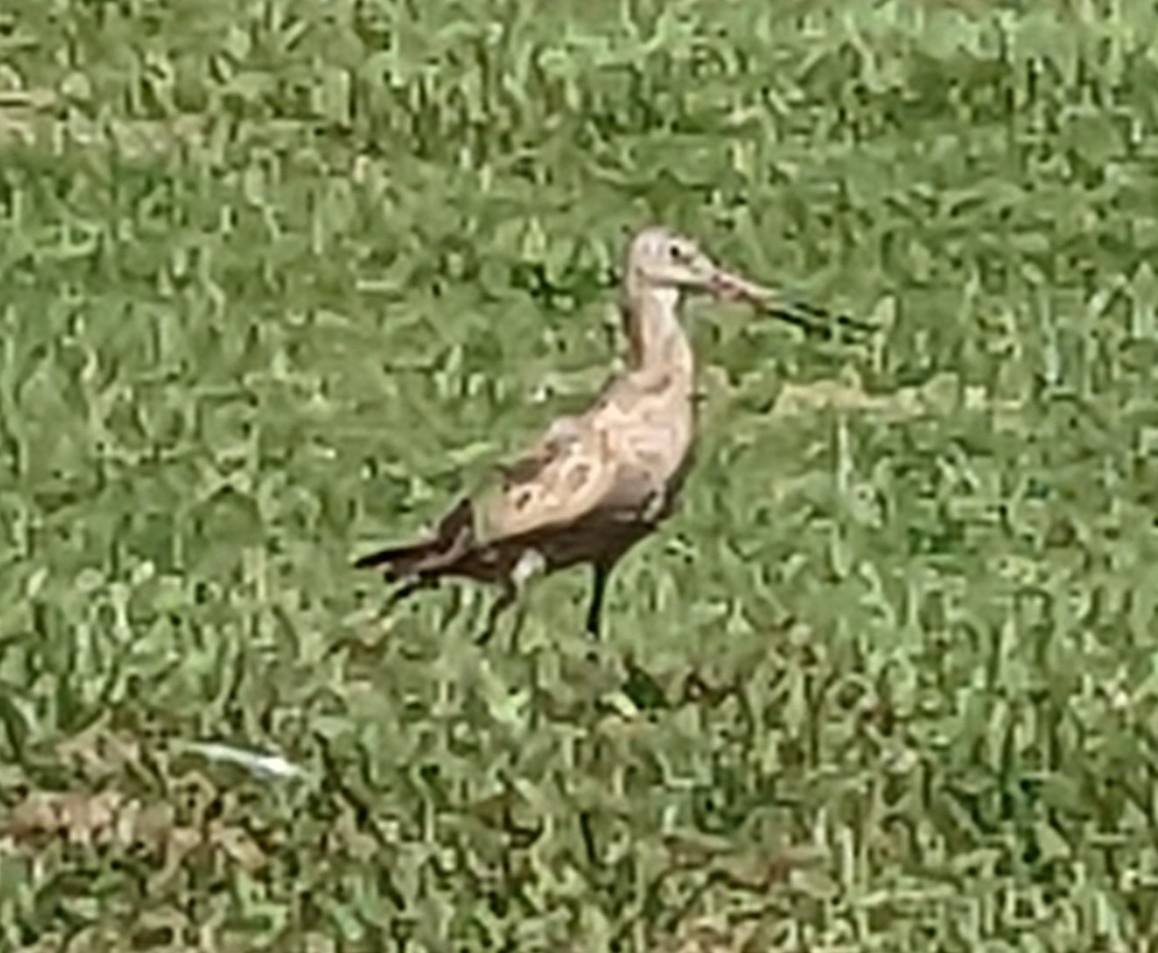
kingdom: Animalia
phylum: Chordata
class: Aves
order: Charadriiformes
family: Scolopacidae
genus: Limosa
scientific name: Limosa fedoa
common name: Marbled godwit
